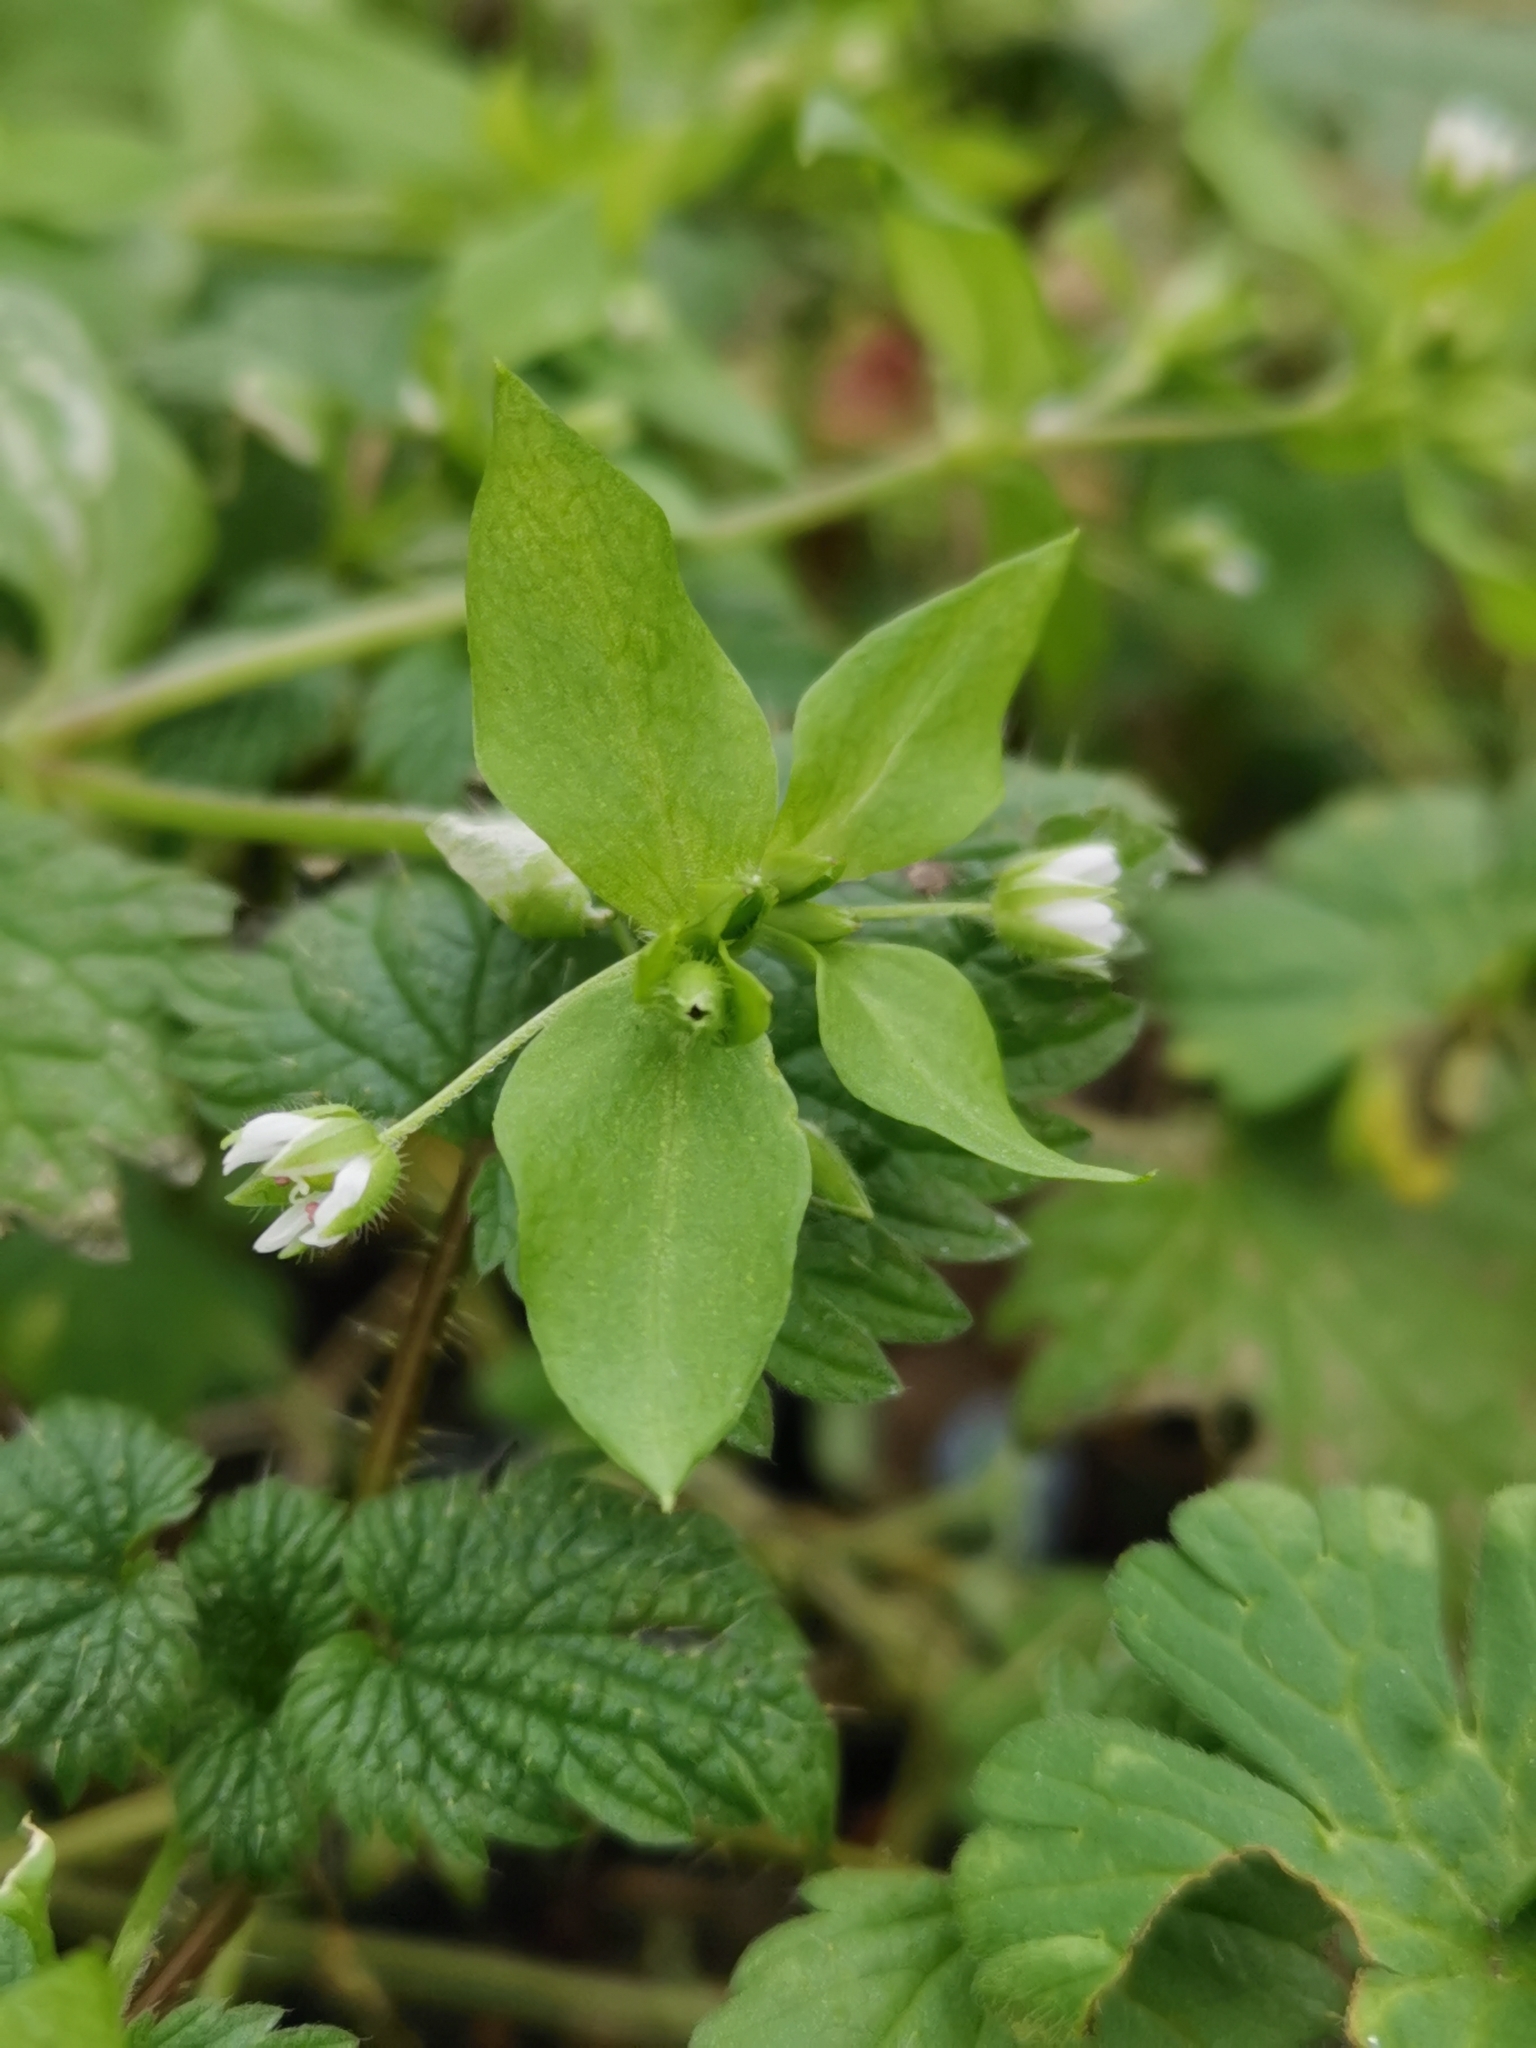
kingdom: Plantae
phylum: Tracheophyta
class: Magnoliopsida
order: Caryophyllales
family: Caryophyllaceae
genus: Stellaria
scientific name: Stellaria media
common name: Common chickweed
